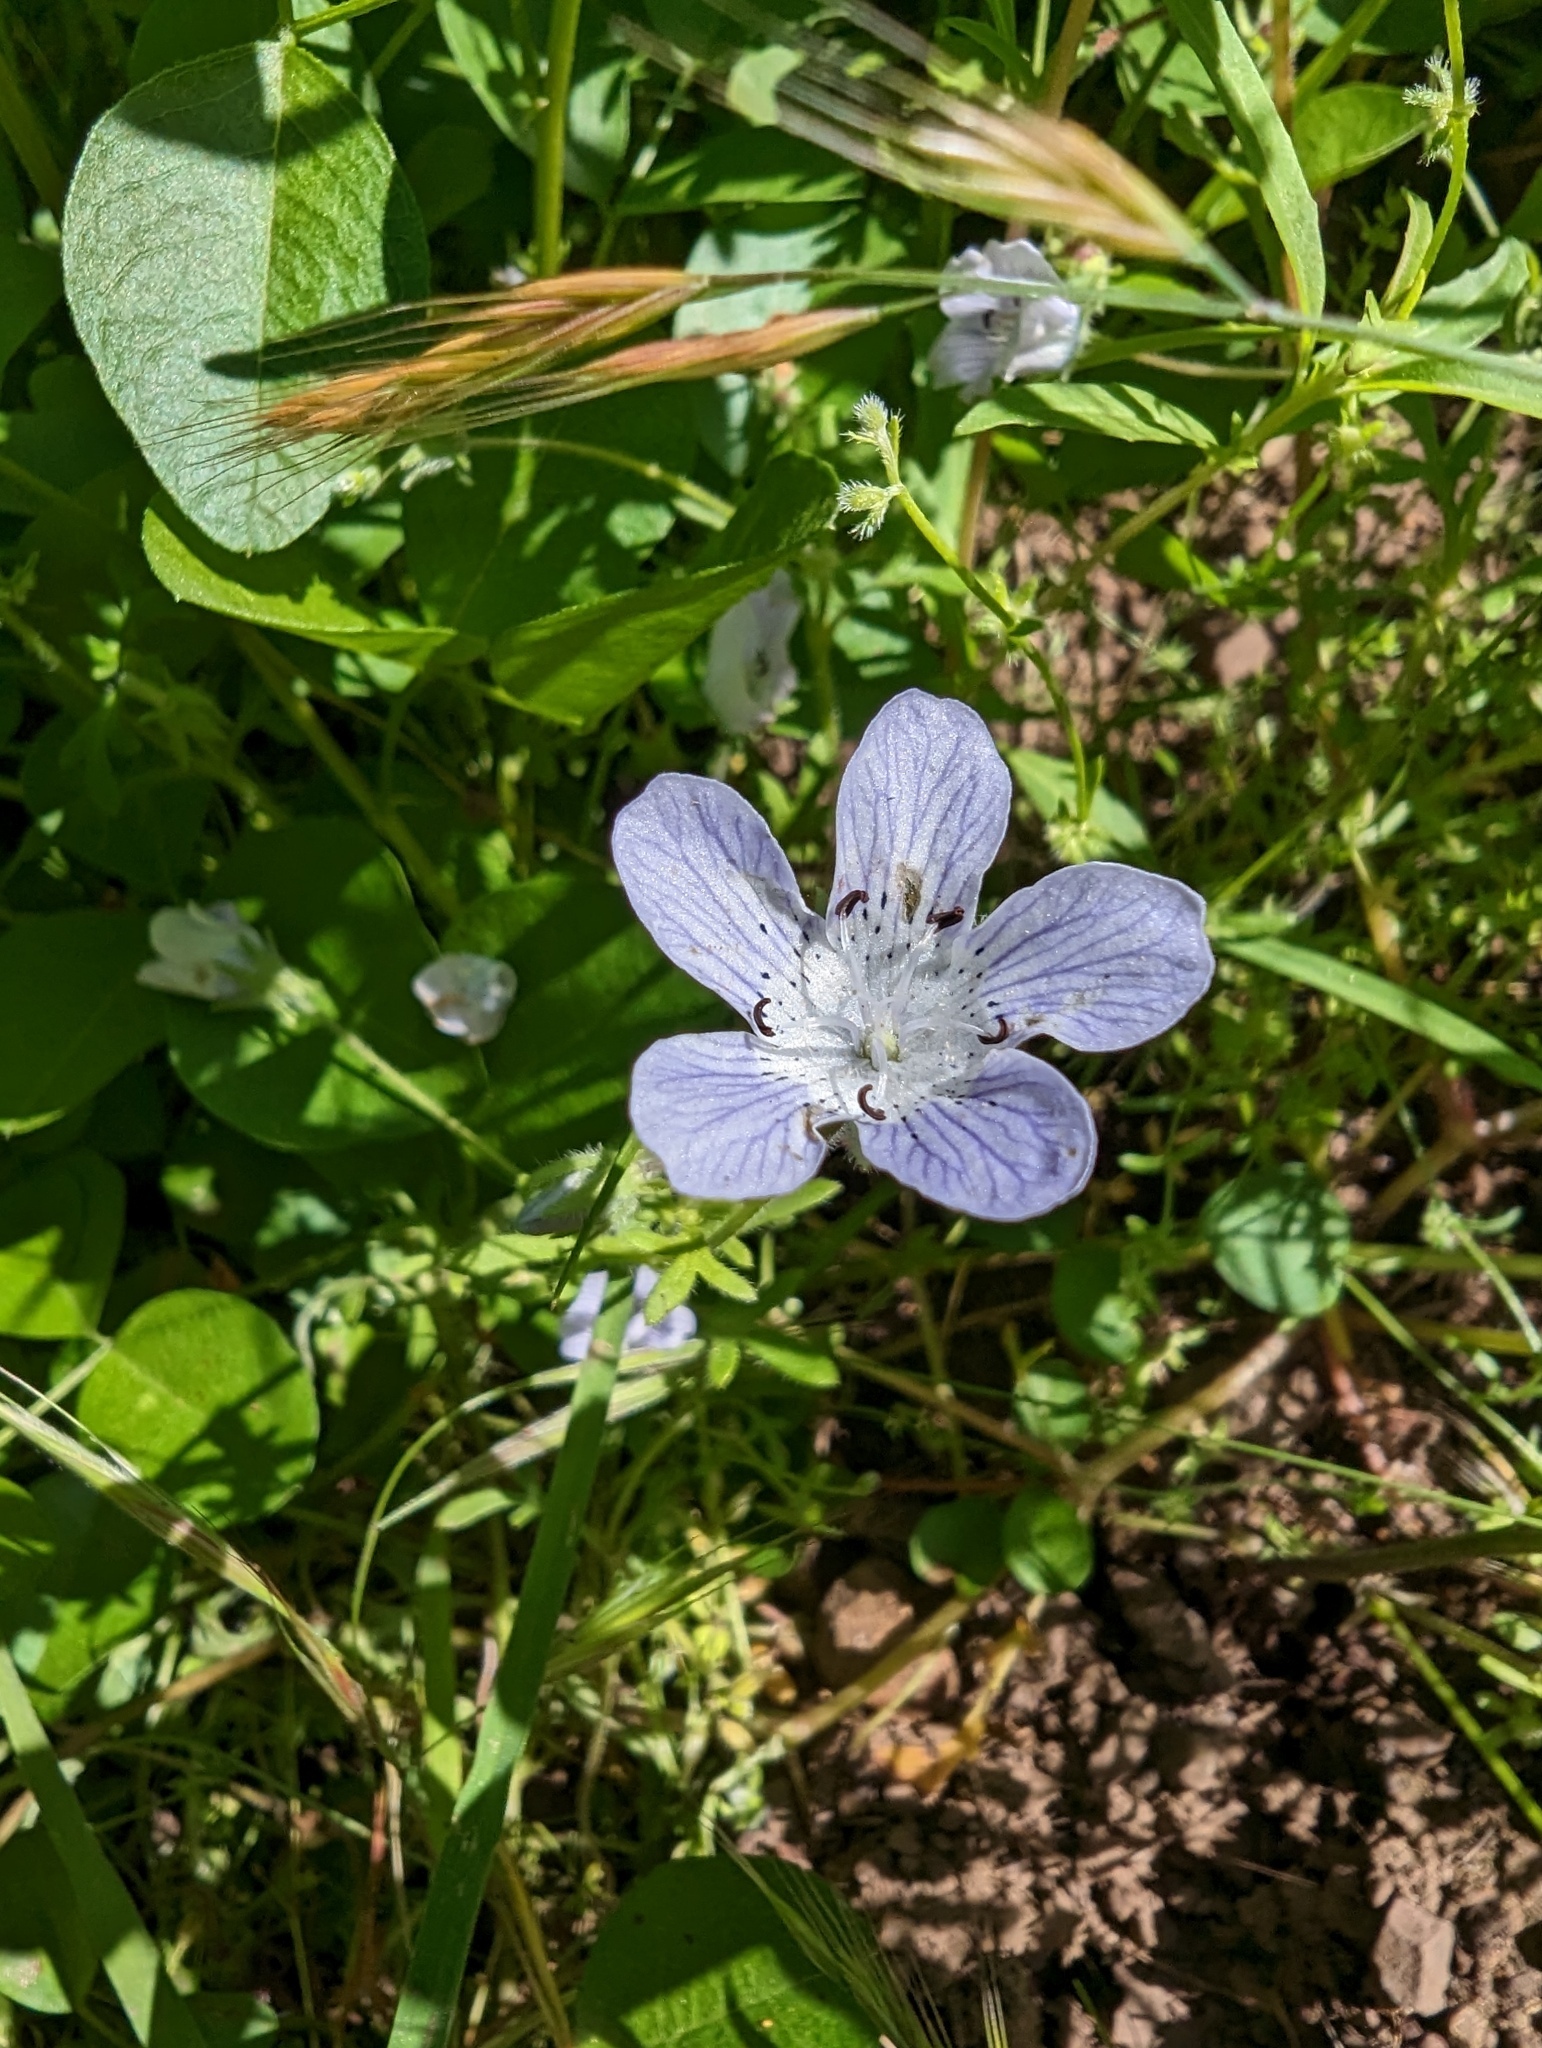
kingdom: Plantae
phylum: Tracheophyta
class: Magnoliopsida
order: Boraginales
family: Hydrophyllaceae
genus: Nemophila
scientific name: Nemophila menziesii
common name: Baby's-blue-eyes
